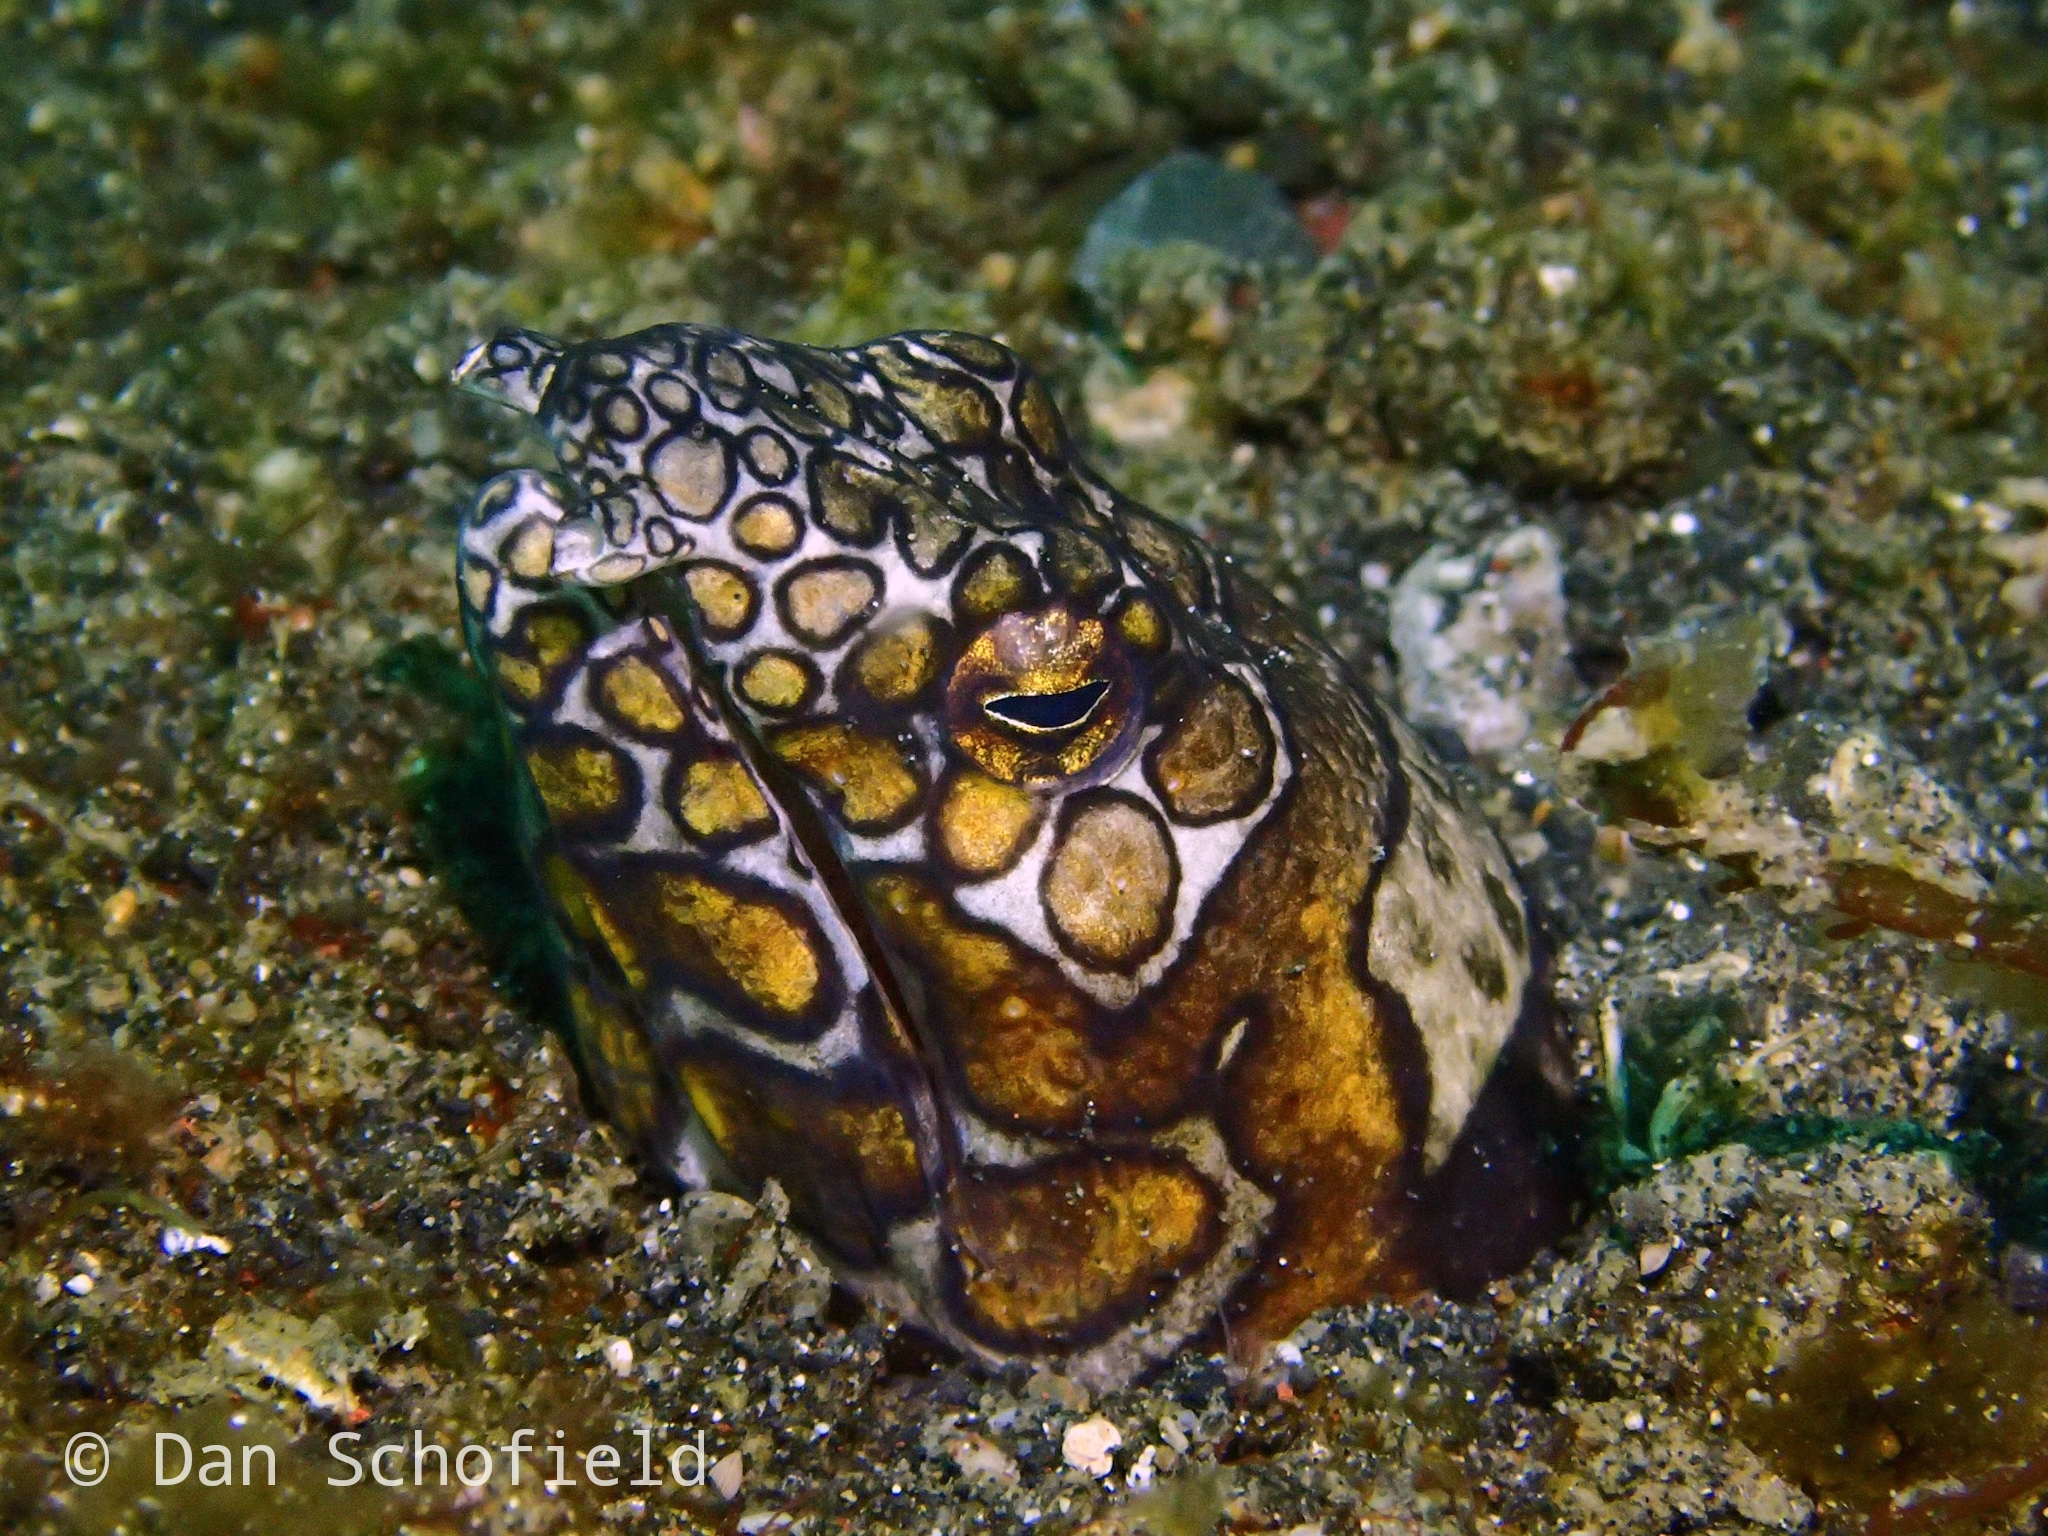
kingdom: Animalia
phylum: Chordata
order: Anguilliformes
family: Ophichthidae
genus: Ophichthus
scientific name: Ophichthus bonaparti
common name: Napoleon snake eel
